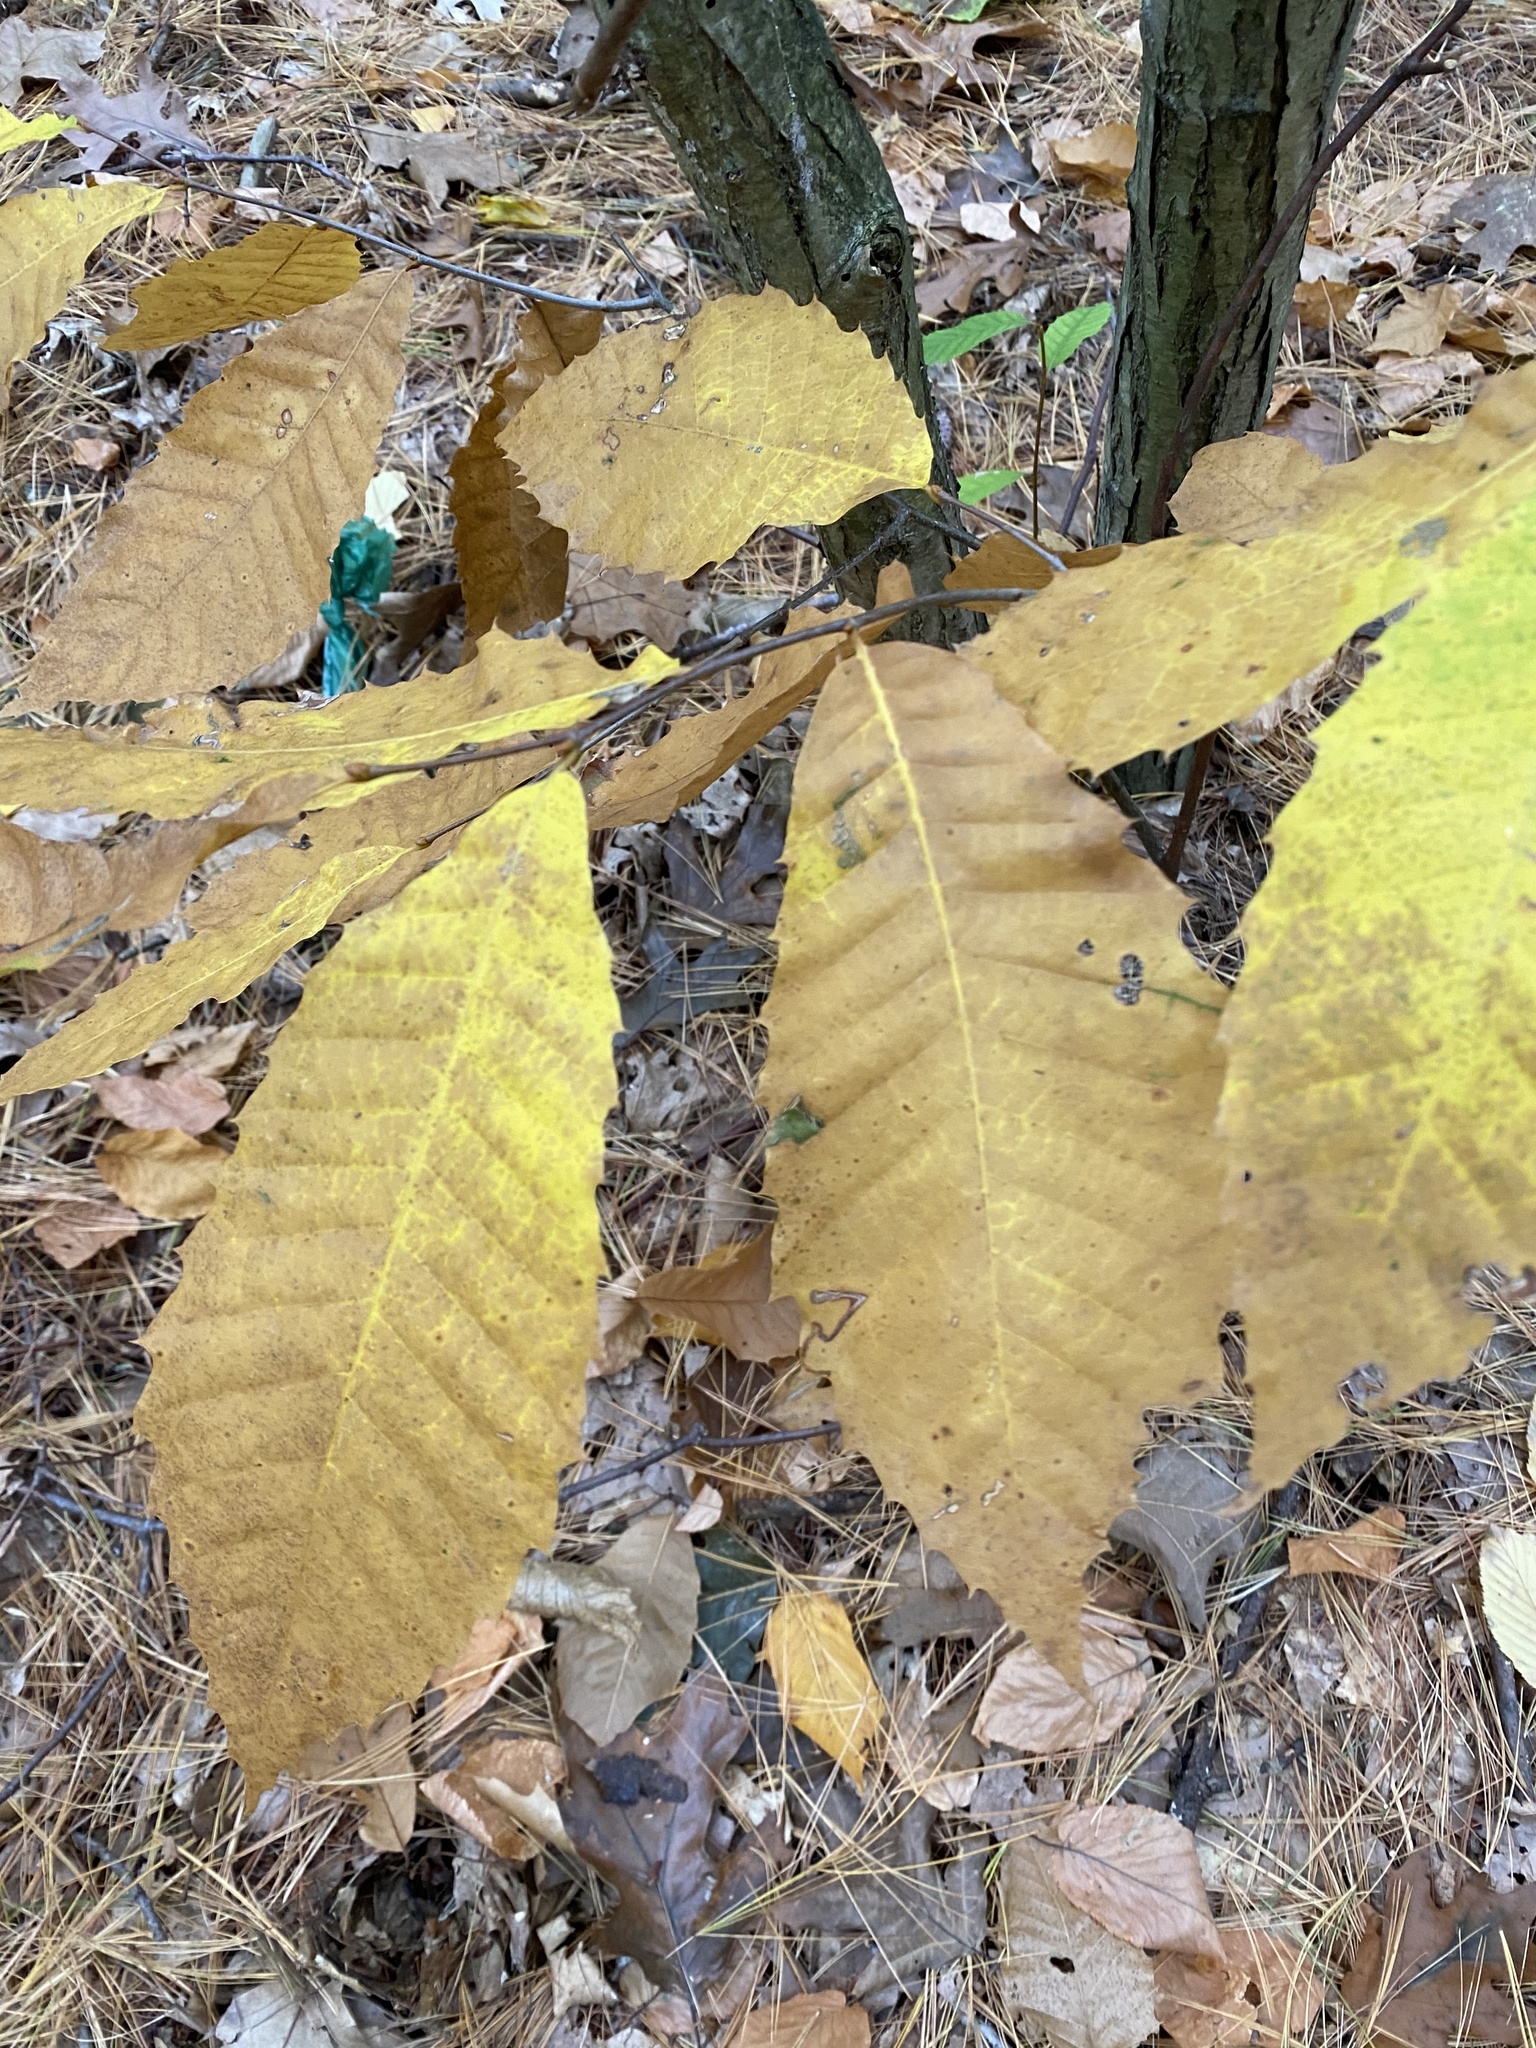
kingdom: Plantae
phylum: Tracheophyta
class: Magnoliopsida
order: Fagales
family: Fagaceae
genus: Castanea
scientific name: Castanea dentata
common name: American chestnut
